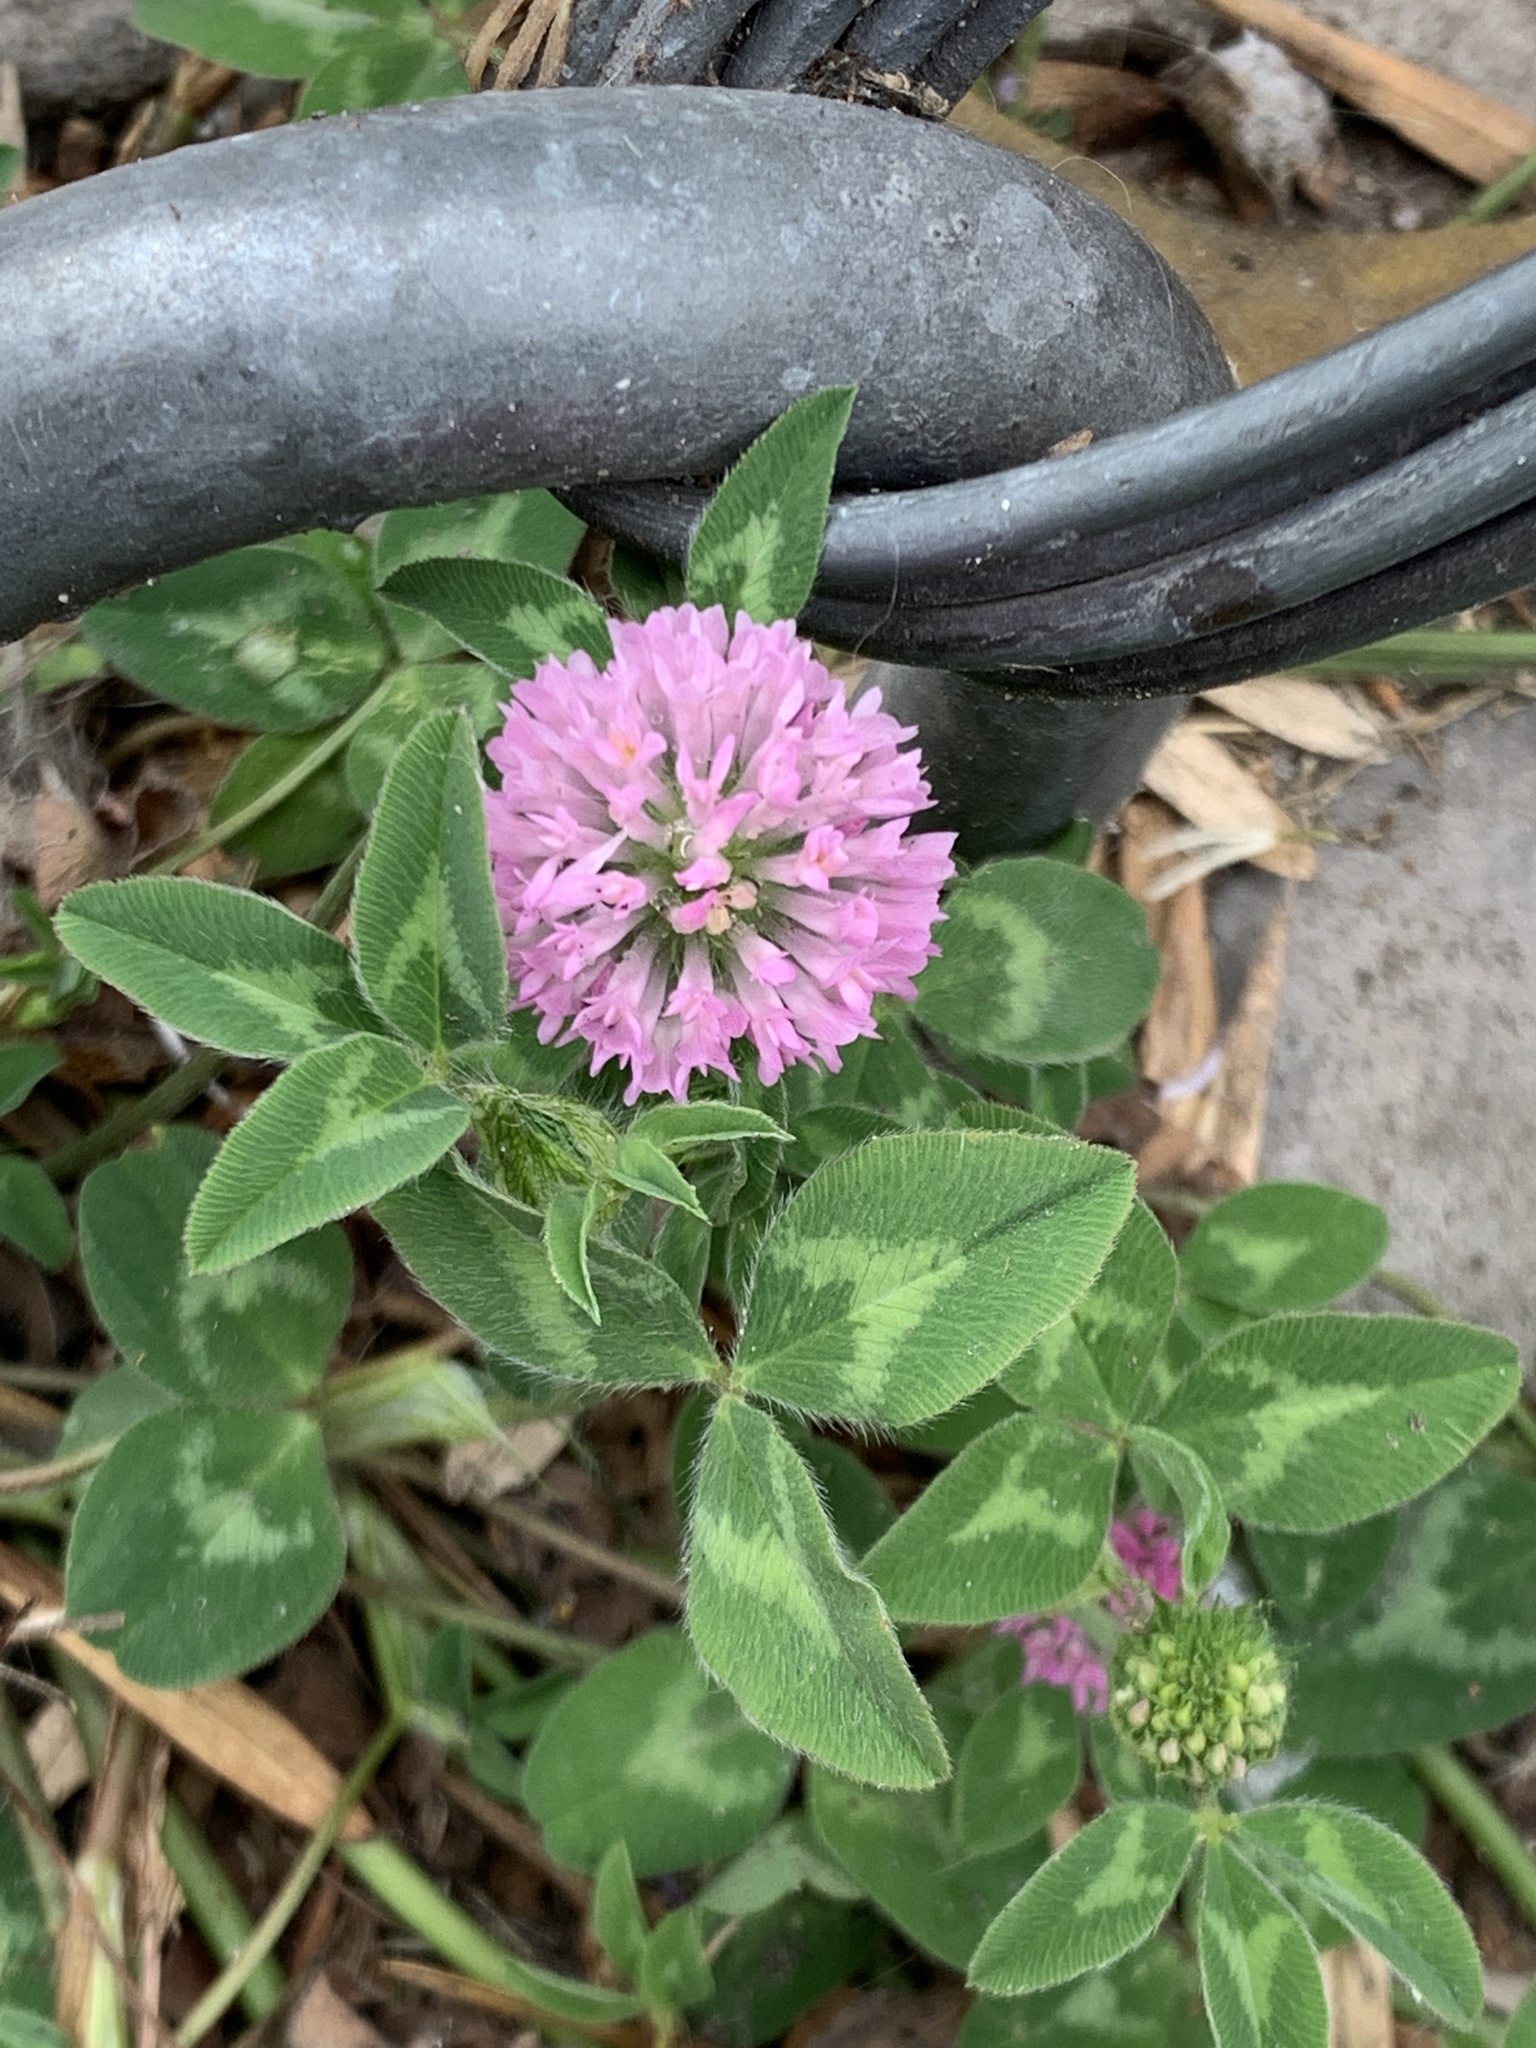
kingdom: Plantae
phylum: Tracheophyta
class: Magnoliopsida
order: Fabales
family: Fabaceae
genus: Trifolium
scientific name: Trifolium pratense
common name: Red clover
